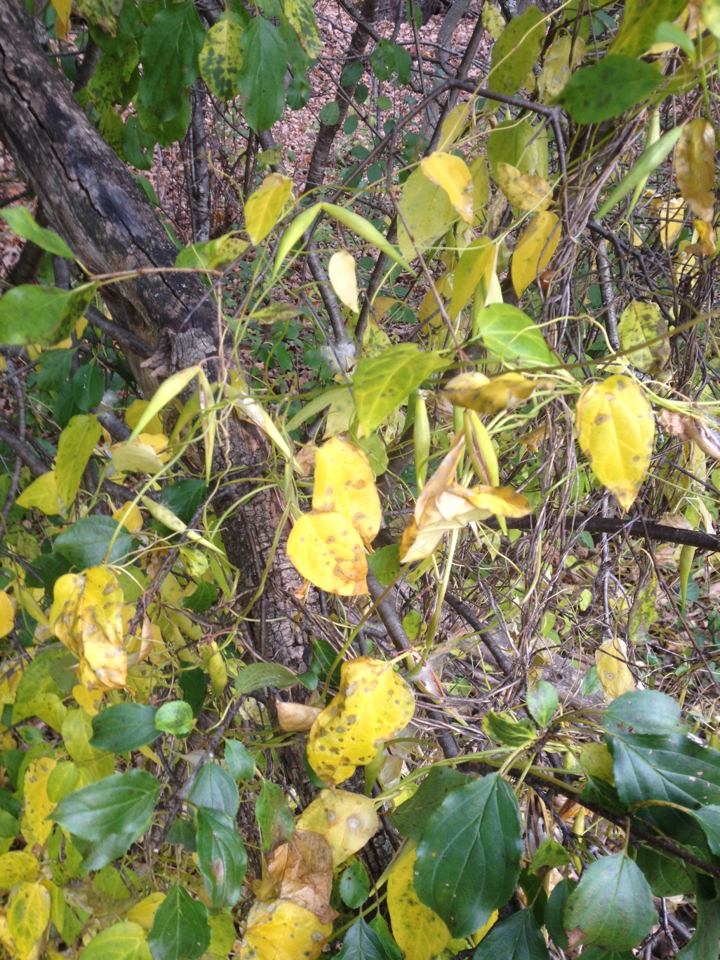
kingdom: Plantae
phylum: Tracheophyta
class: Magnoliopsida
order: Gentianales
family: Apocynaceae
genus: Vincetoxicum
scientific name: Vincetoxicum nigrum
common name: Black swallow-wort
